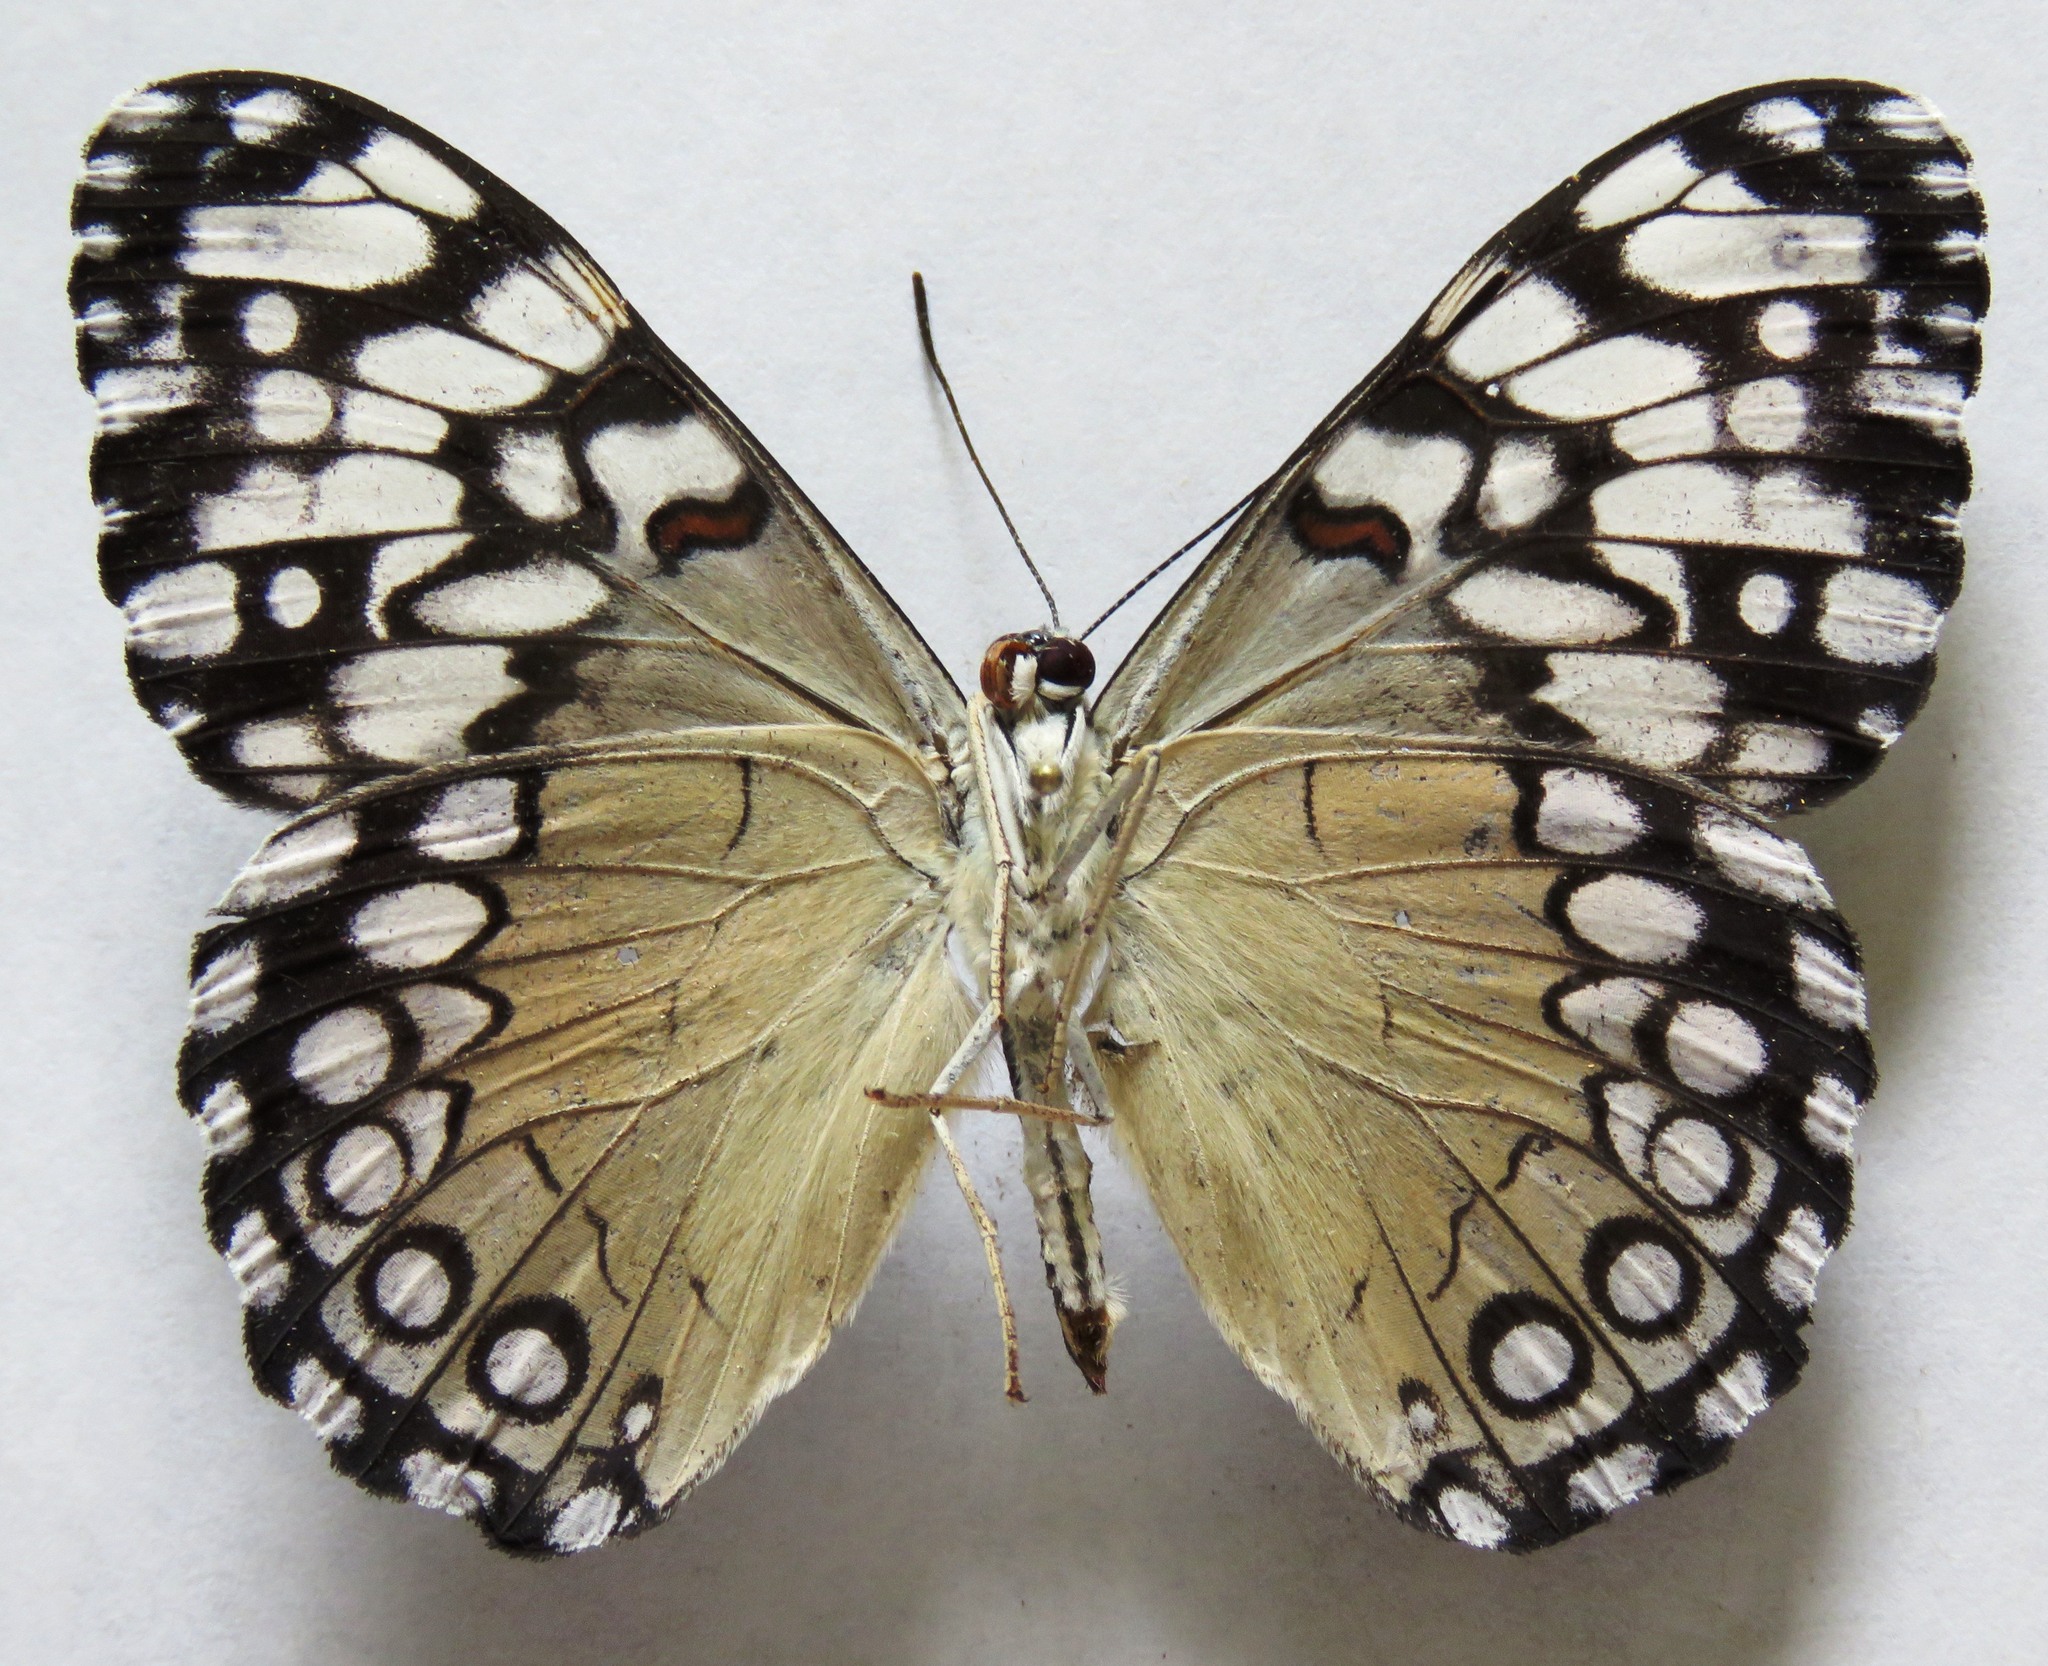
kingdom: Animalia
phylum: Arthropoda
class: Insecta
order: Lepidoptera
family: Nymphalidae
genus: Hamadryas
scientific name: Hamadryas guatemalena
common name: Guatemalan cracker
